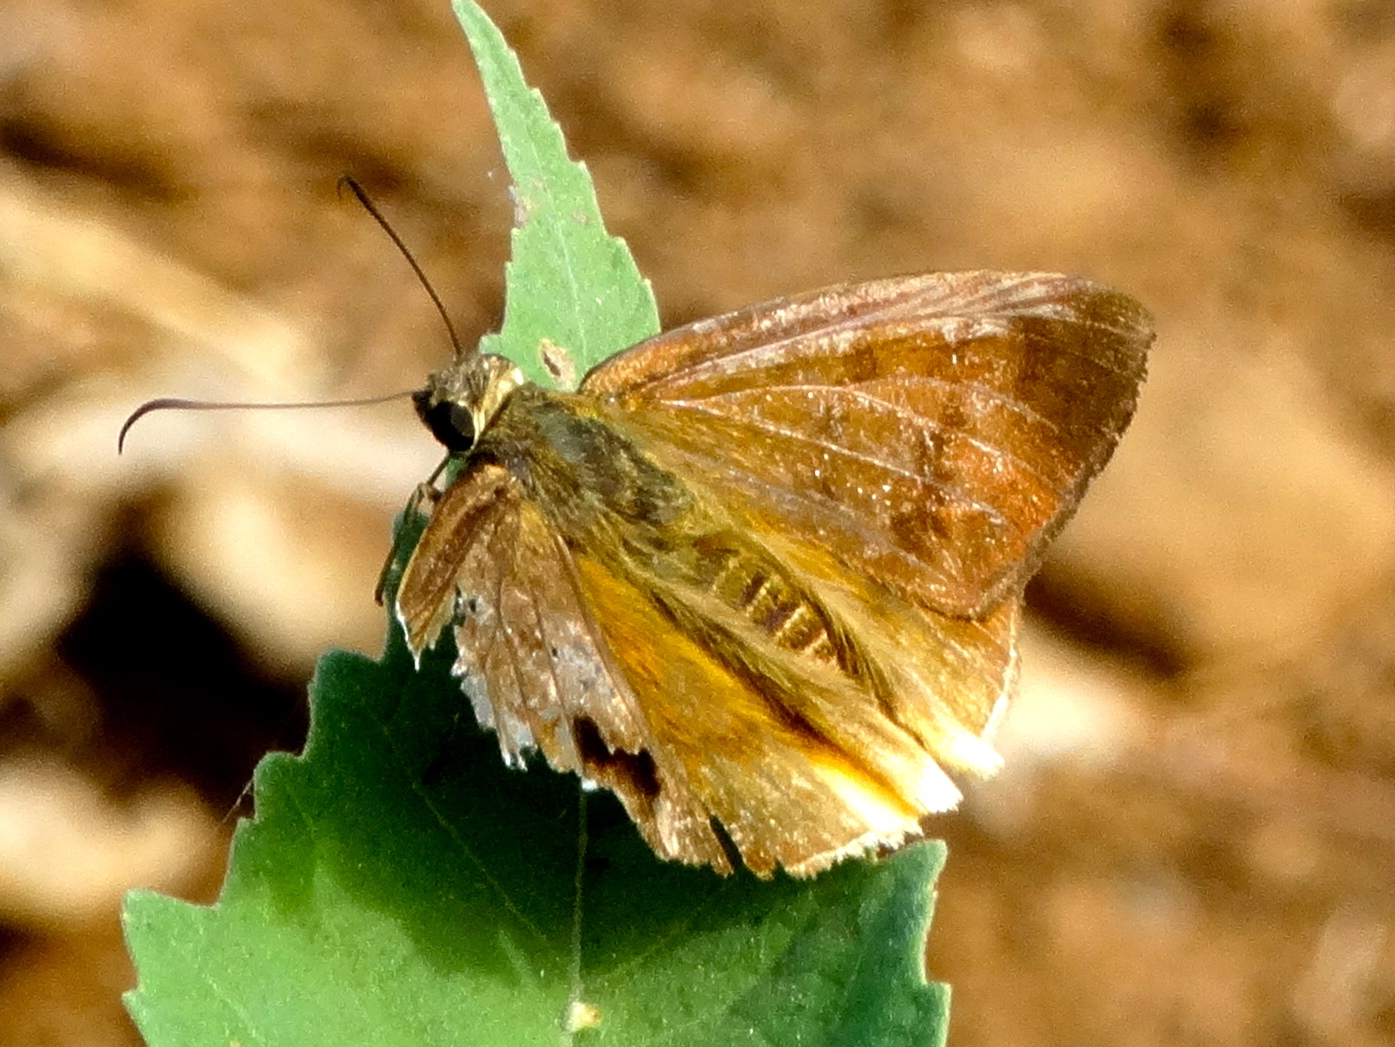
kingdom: Animalia
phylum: Arthropoda
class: Insecta
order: Lepidoptera
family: Hesperiidae
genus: Astraptes
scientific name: Astraptes anaphus
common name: Yellow-tipped flasher
